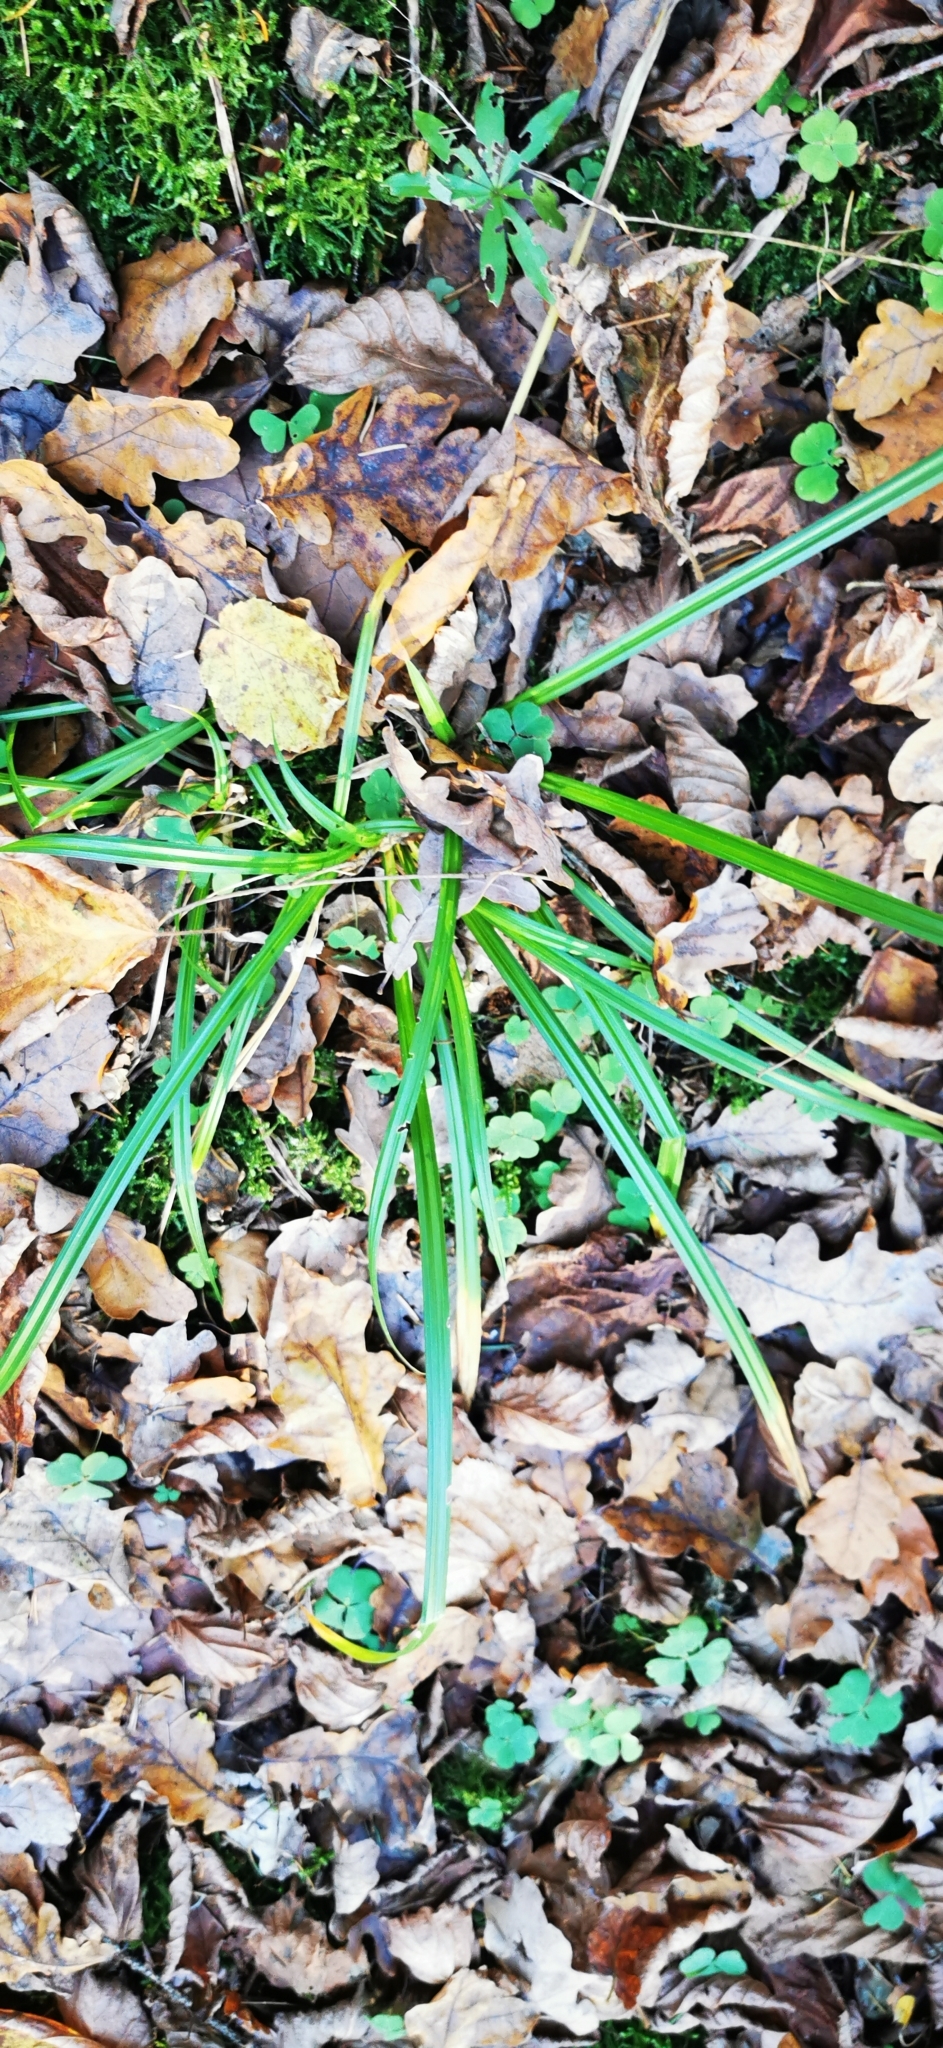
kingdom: Plantae
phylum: Tracheophyta
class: Liliopsida
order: Poales
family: Cyperaceae
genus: Carex
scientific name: Carex sylvatica
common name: Wood-sedge
